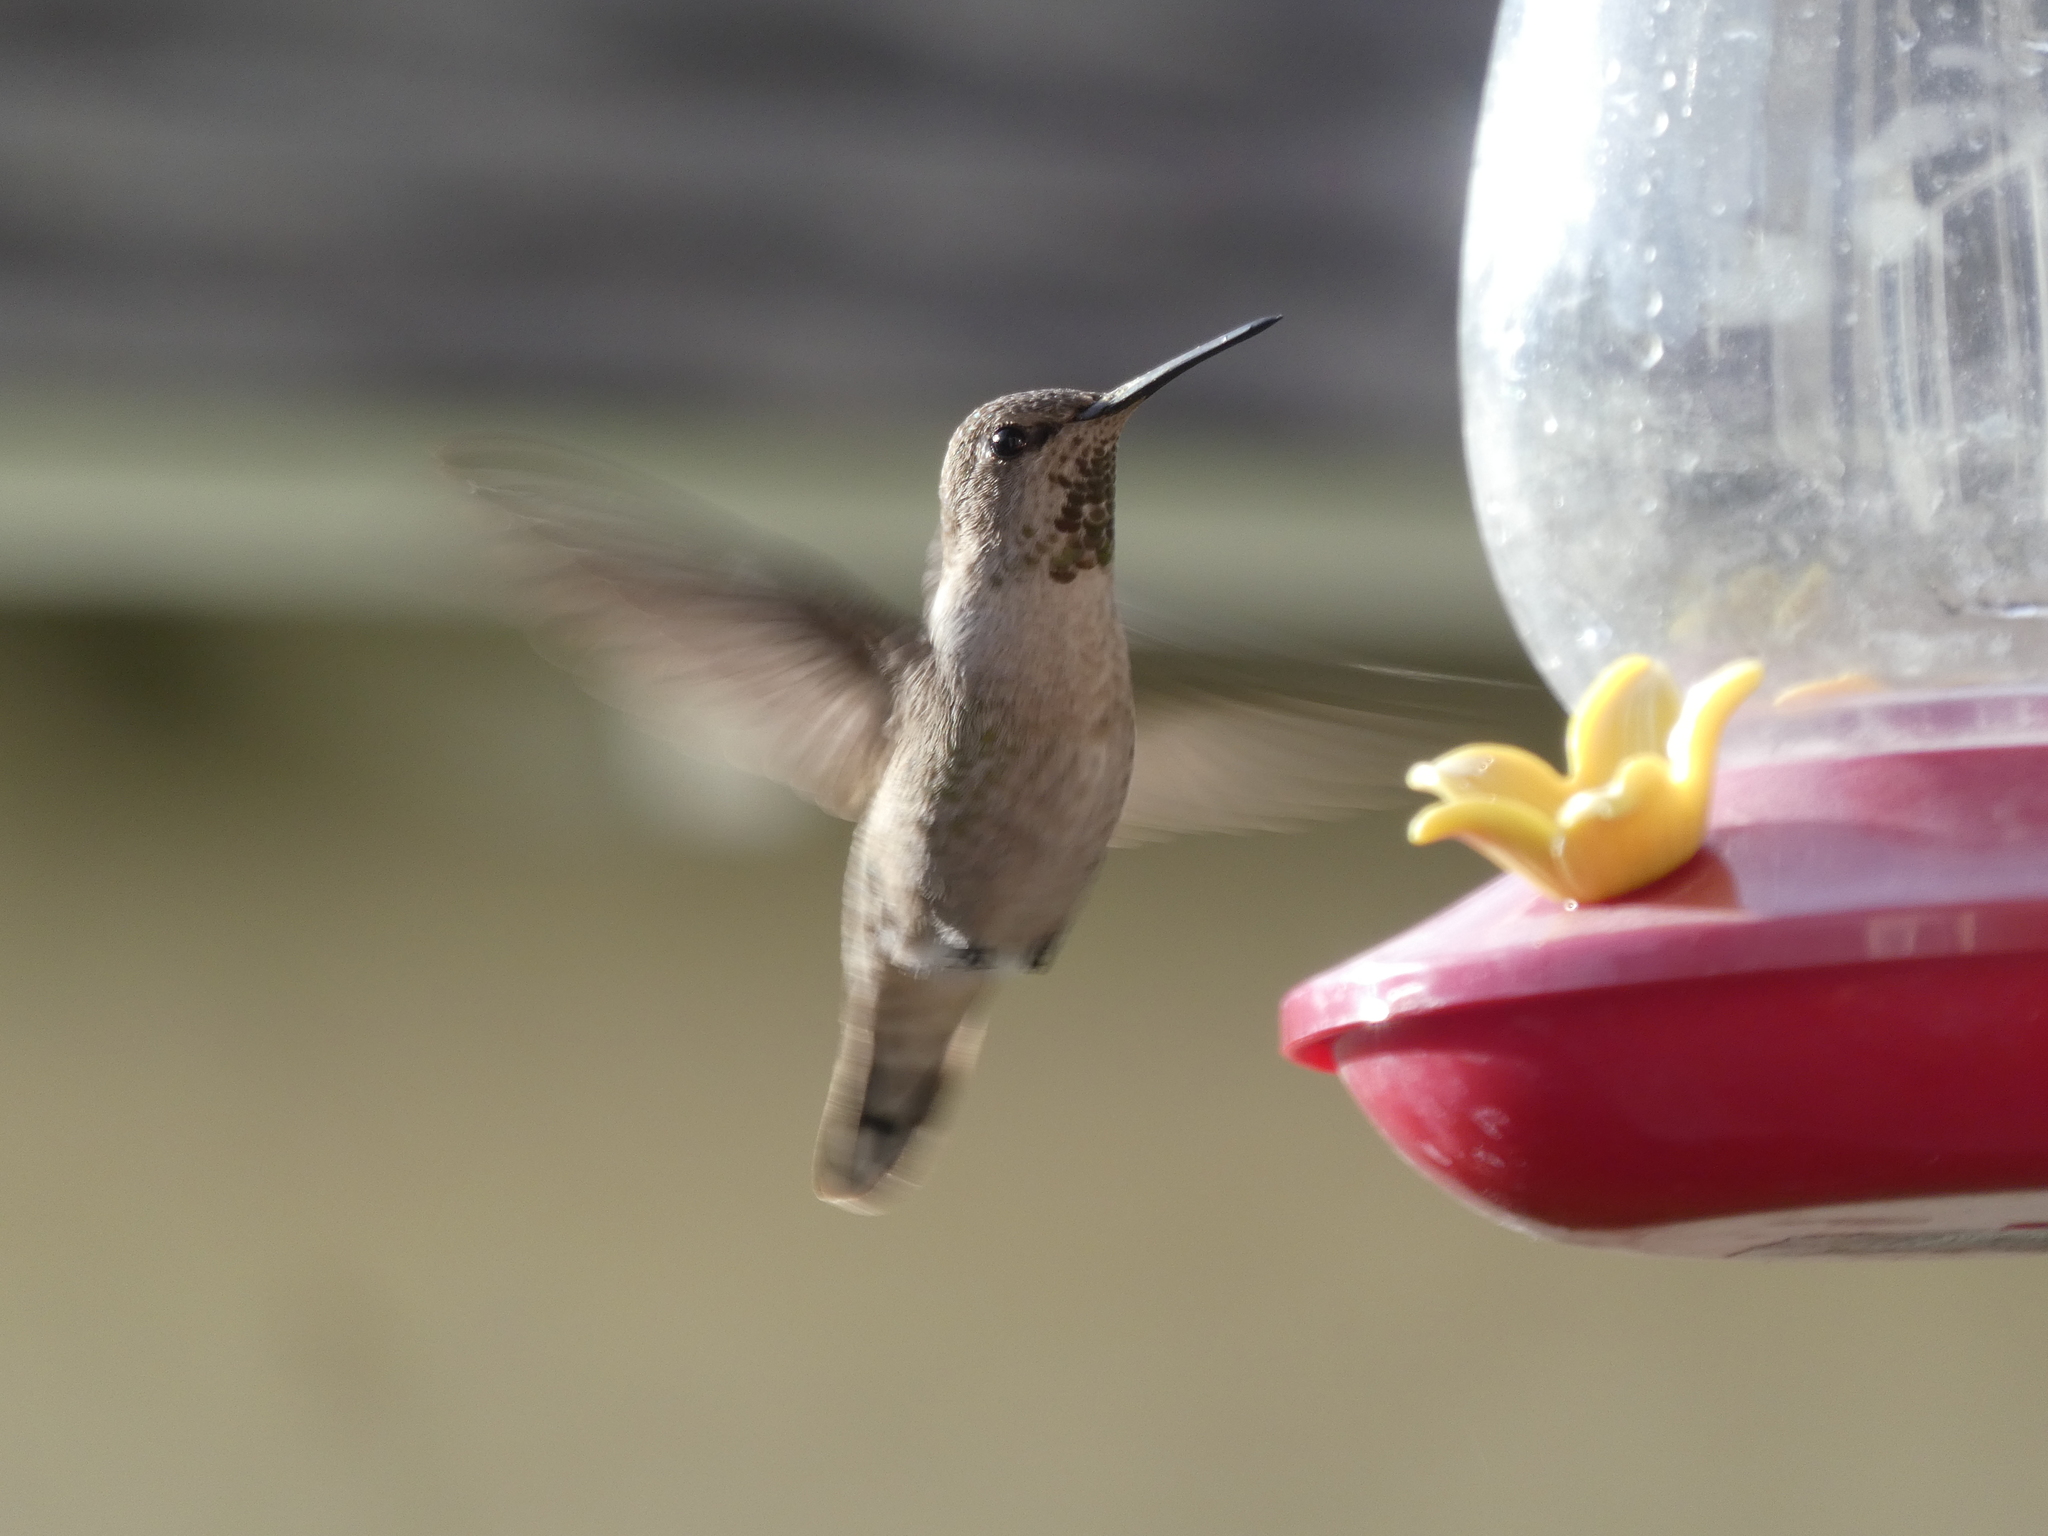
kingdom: Animalia
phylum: Chordata
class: Aves
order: Apodiformes
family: Trochilidae
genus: Calypte
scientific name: Calypte anna
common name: Anna's hummingbird
